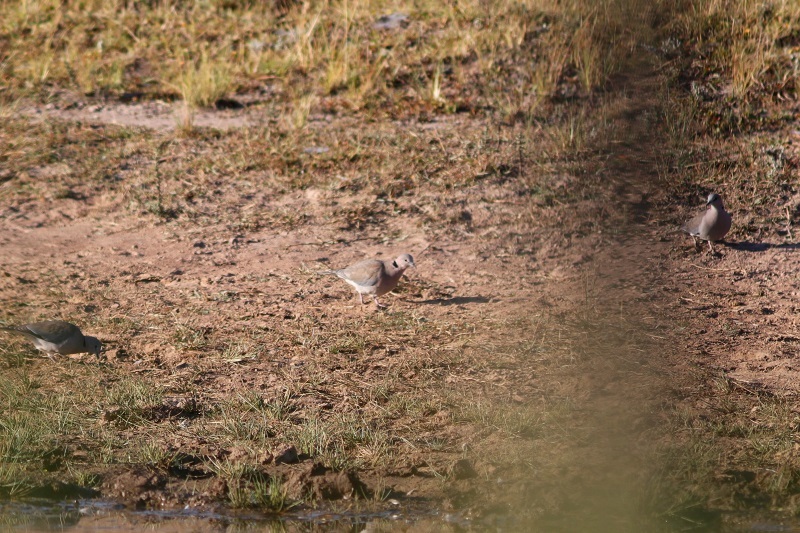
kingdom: Animalia
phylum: Chordata
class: Aves
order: Columbiformes
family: Columbidae
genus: Streptopelia
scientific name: Streptopelia capicola
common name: Ring-necked dove
